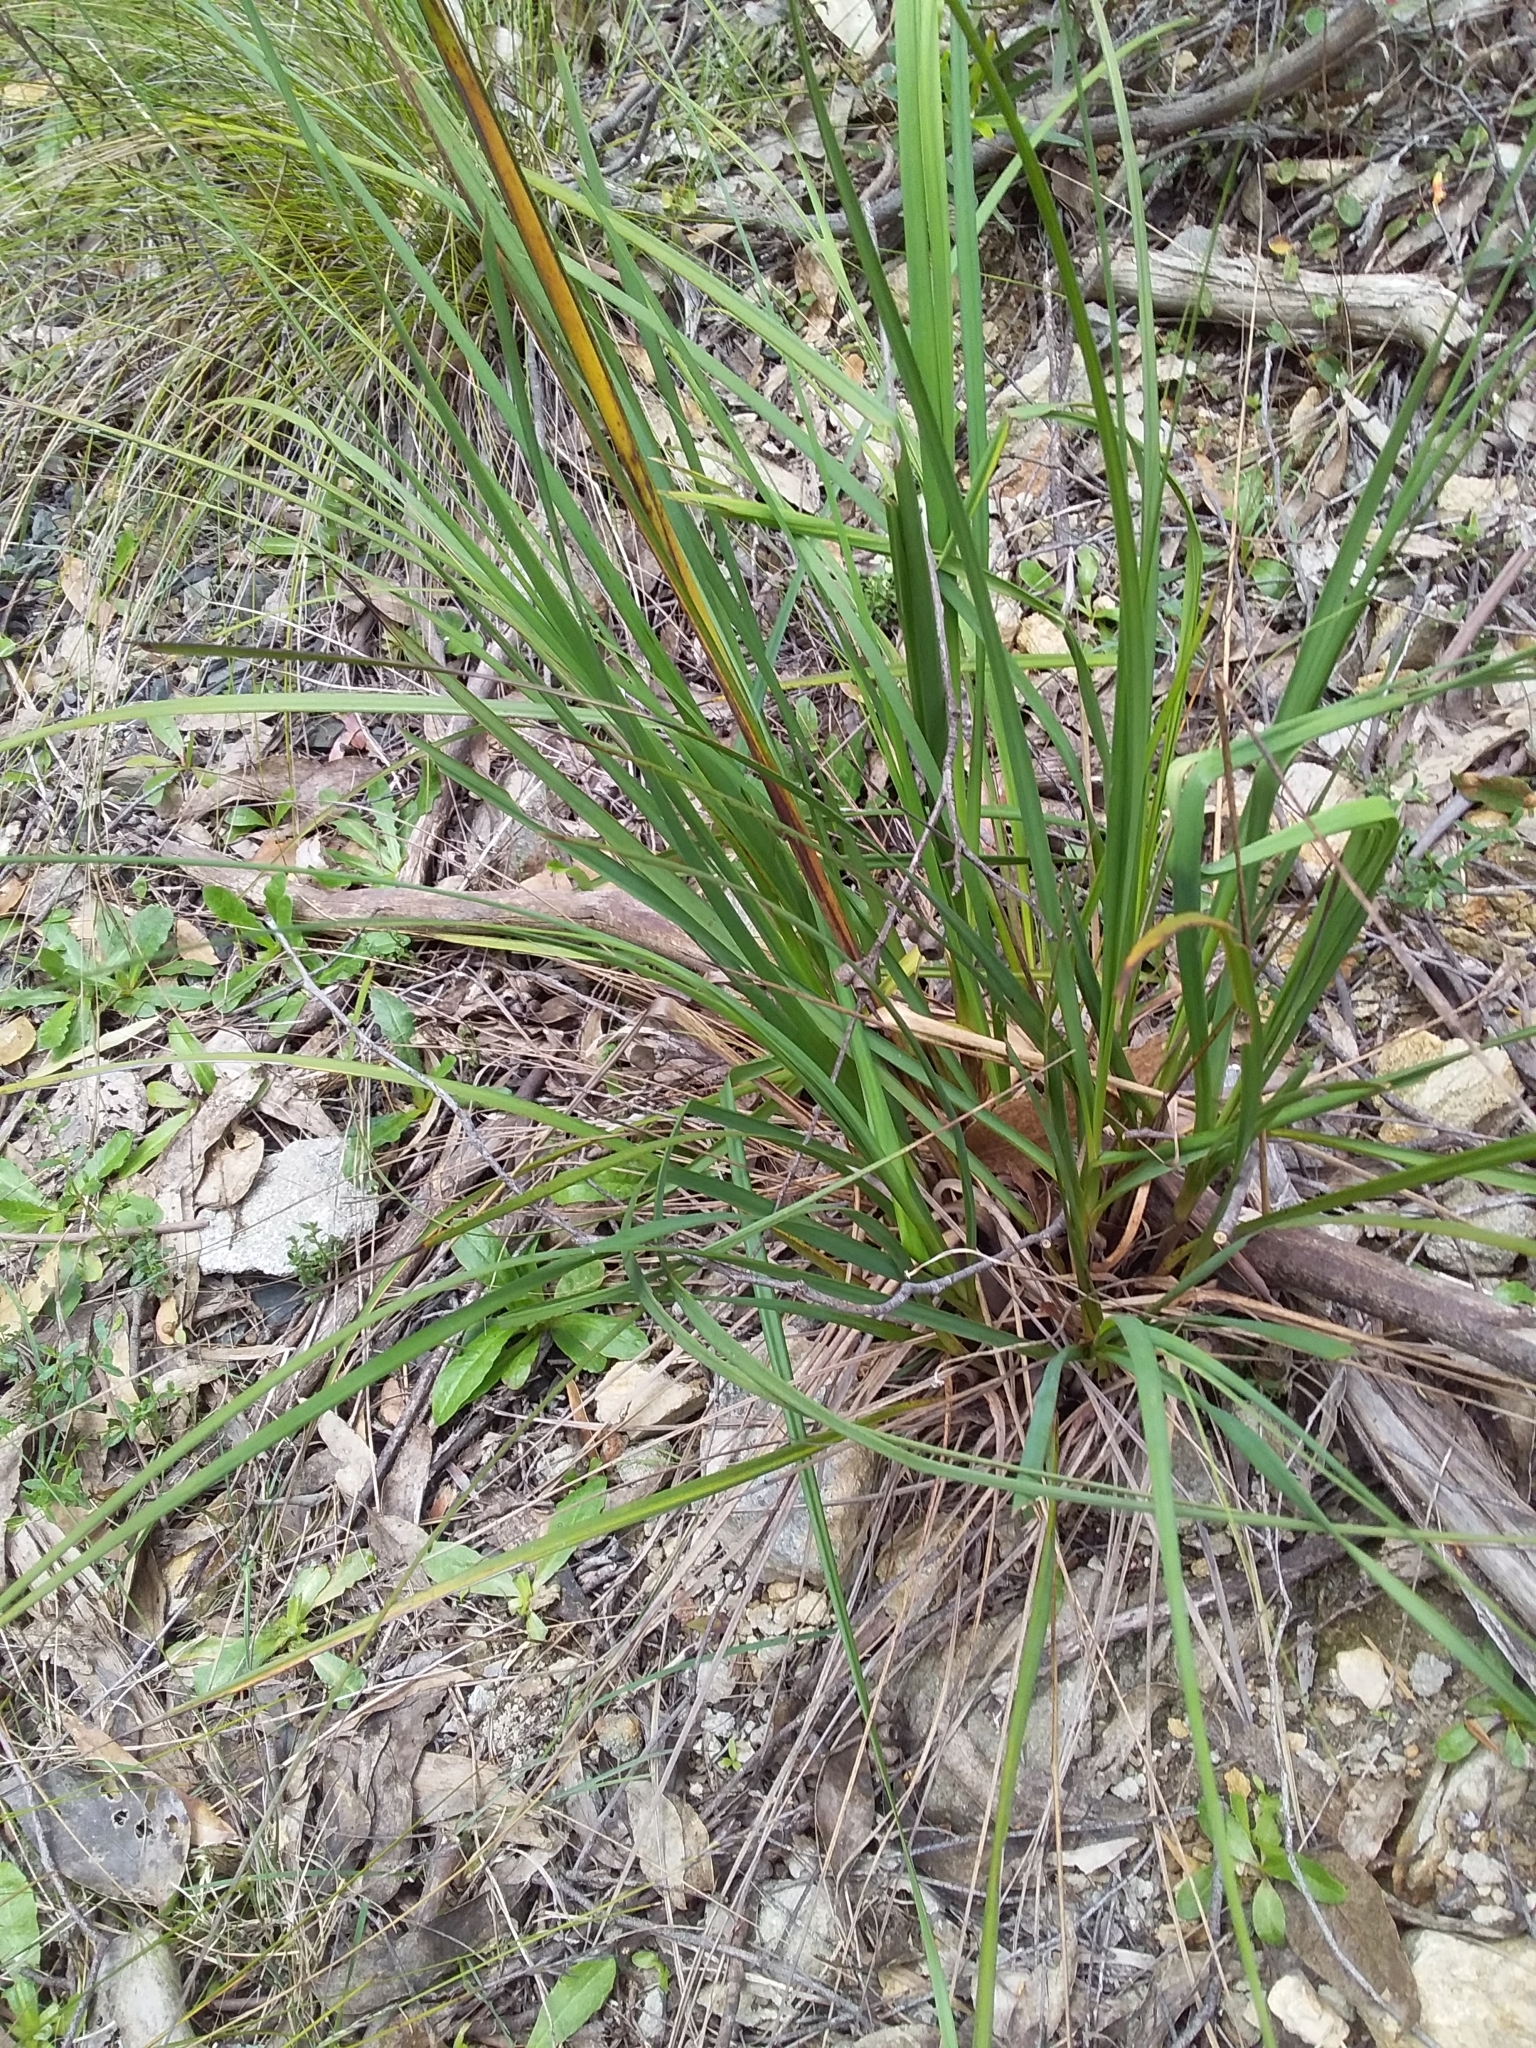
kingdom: Plantae
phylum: Tracheophyta
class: Liliopsida
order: Poales
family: Cyperaceae
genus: Gahnia
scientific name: Gahnia sieberiana
